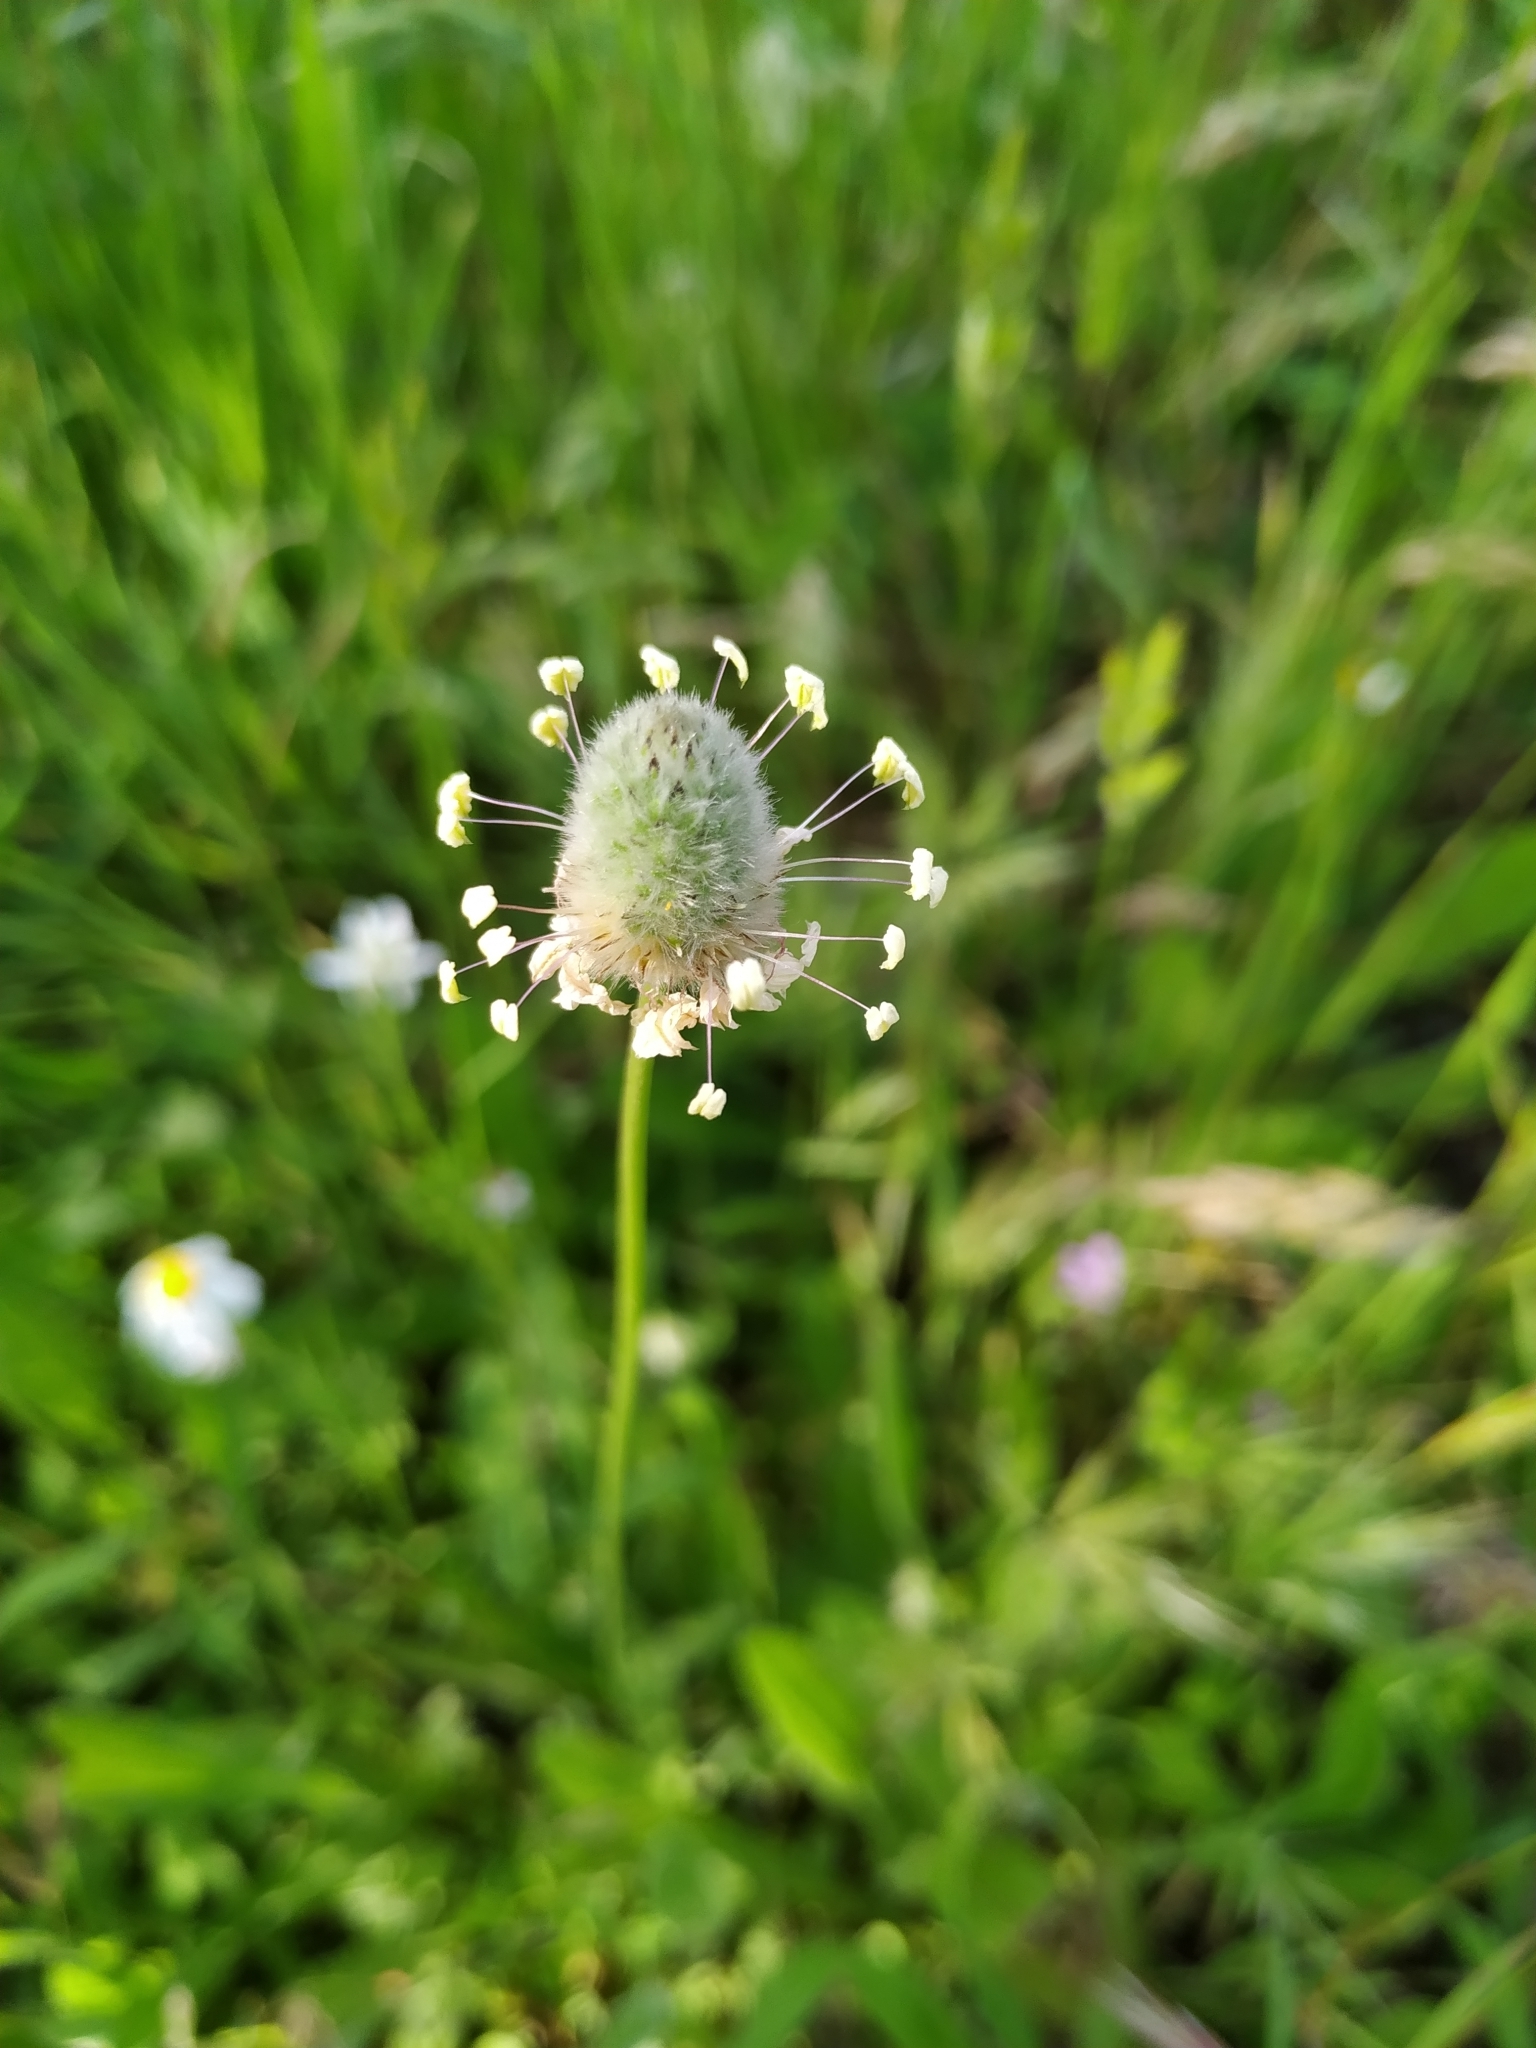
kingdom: Plantae
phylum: Tracheophyta
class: Magnoliopsida
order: Lamiales
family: Plantaginaceae
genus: Plantago
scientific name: Plantago lagopus
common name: Hare-foot plantain
